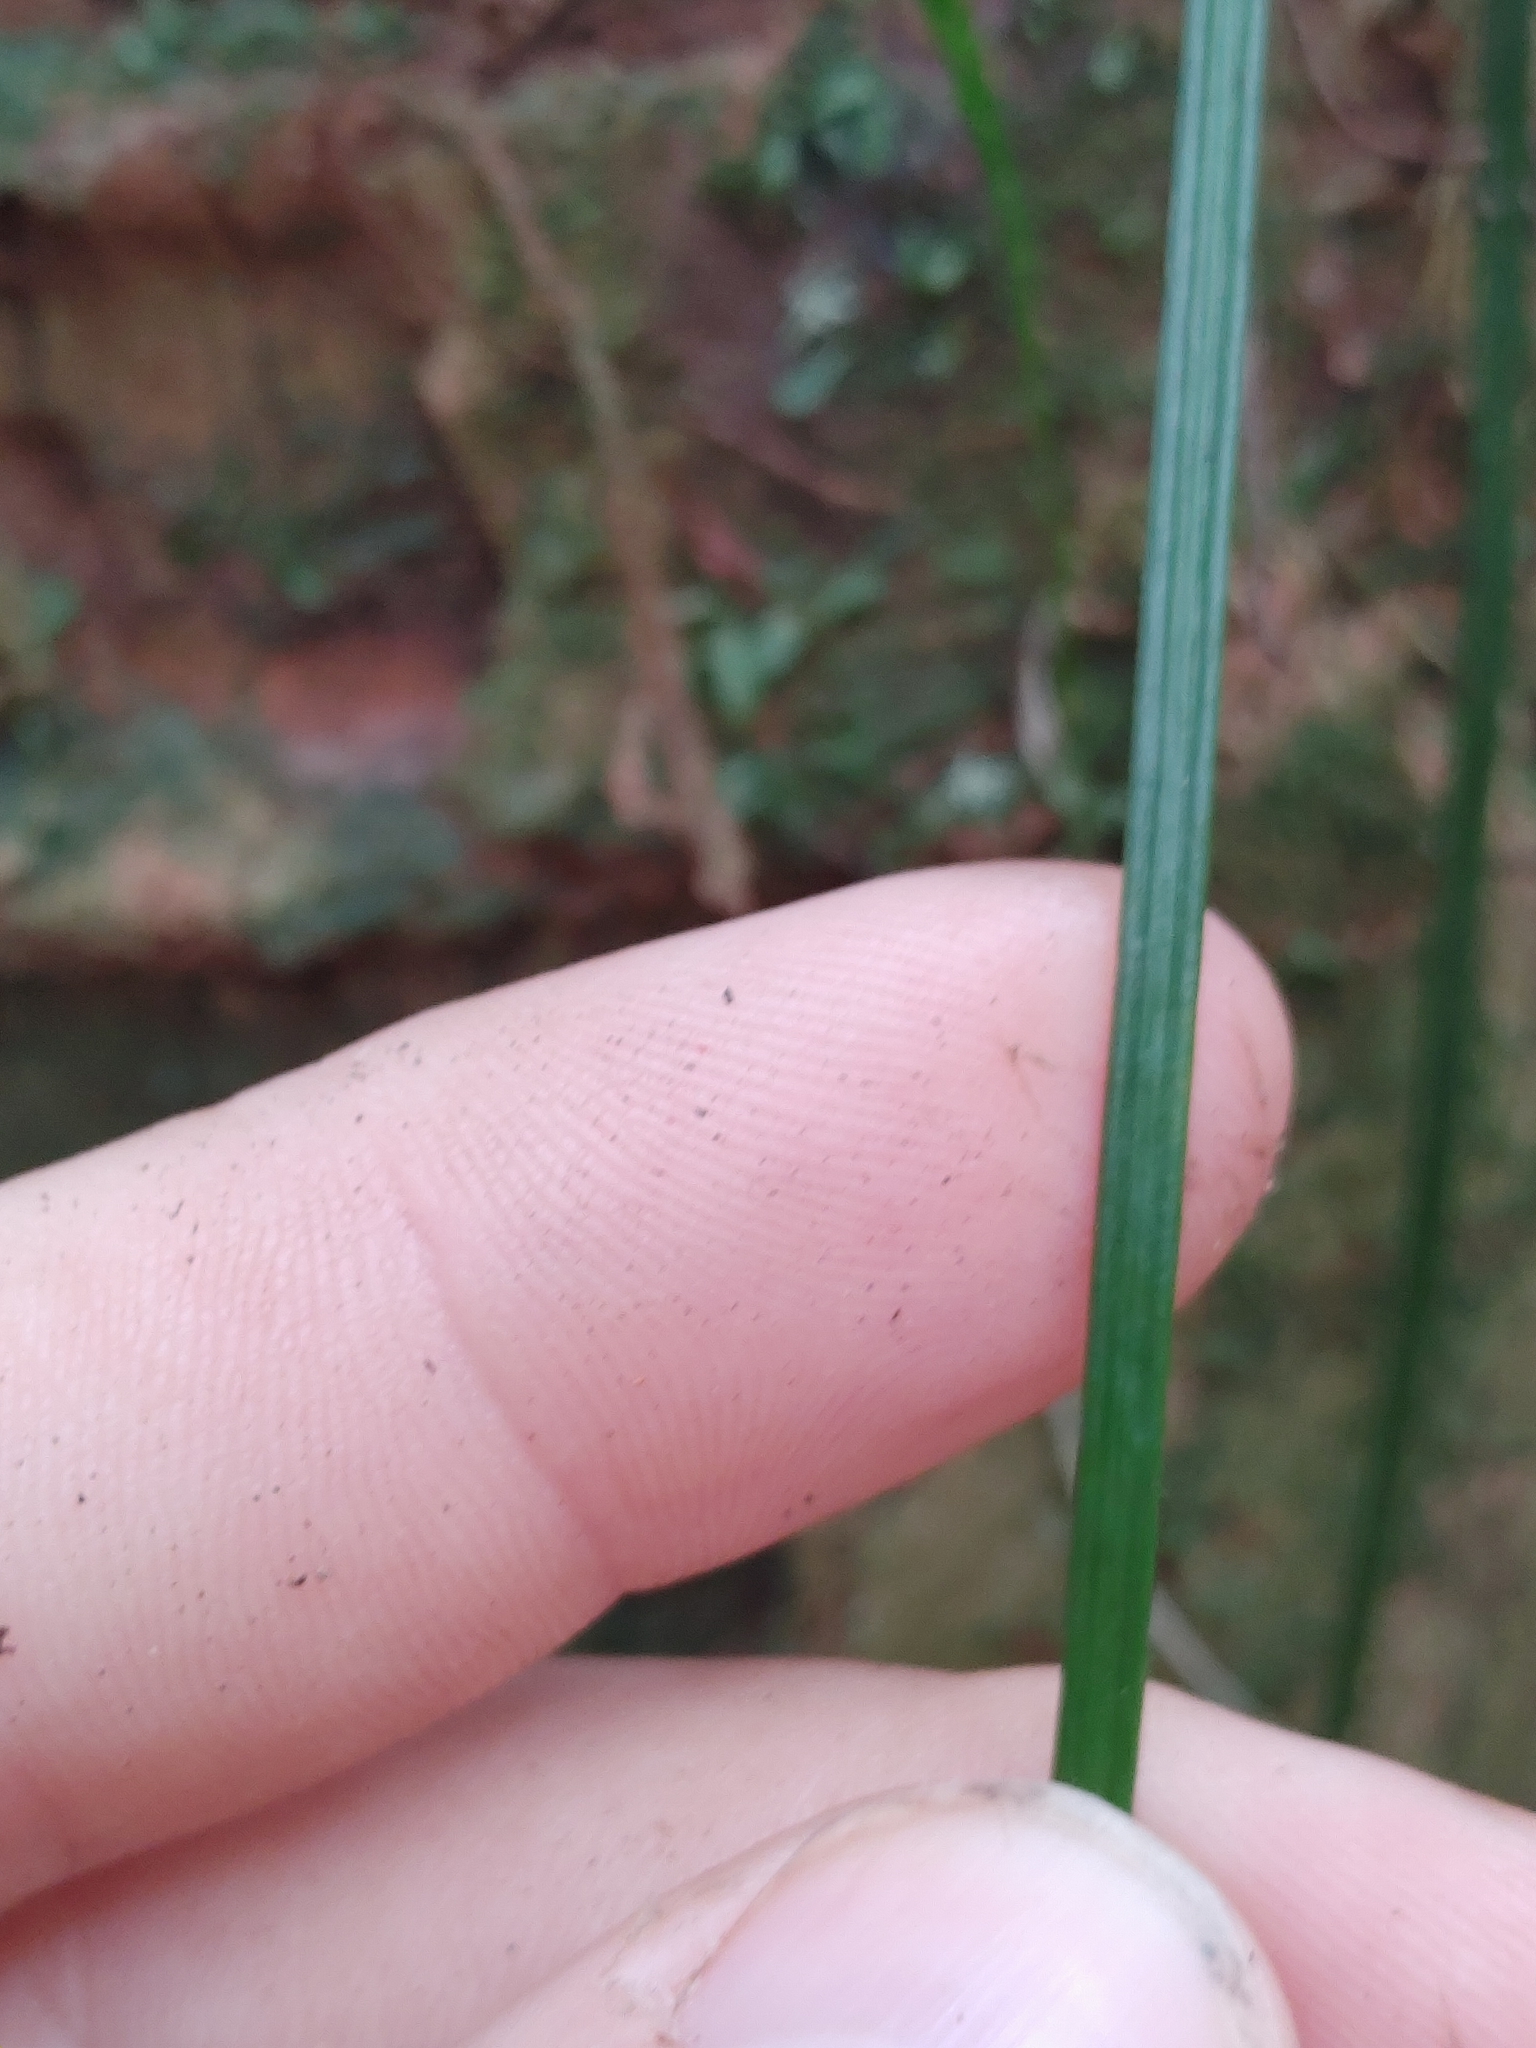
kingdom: Plantae
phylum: Tracheophyta
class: Polypodiopsida
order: Polypodiales
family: Pteridaceae
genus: Vittaria
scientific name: Vittaria lineata
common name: Shoestring fern
